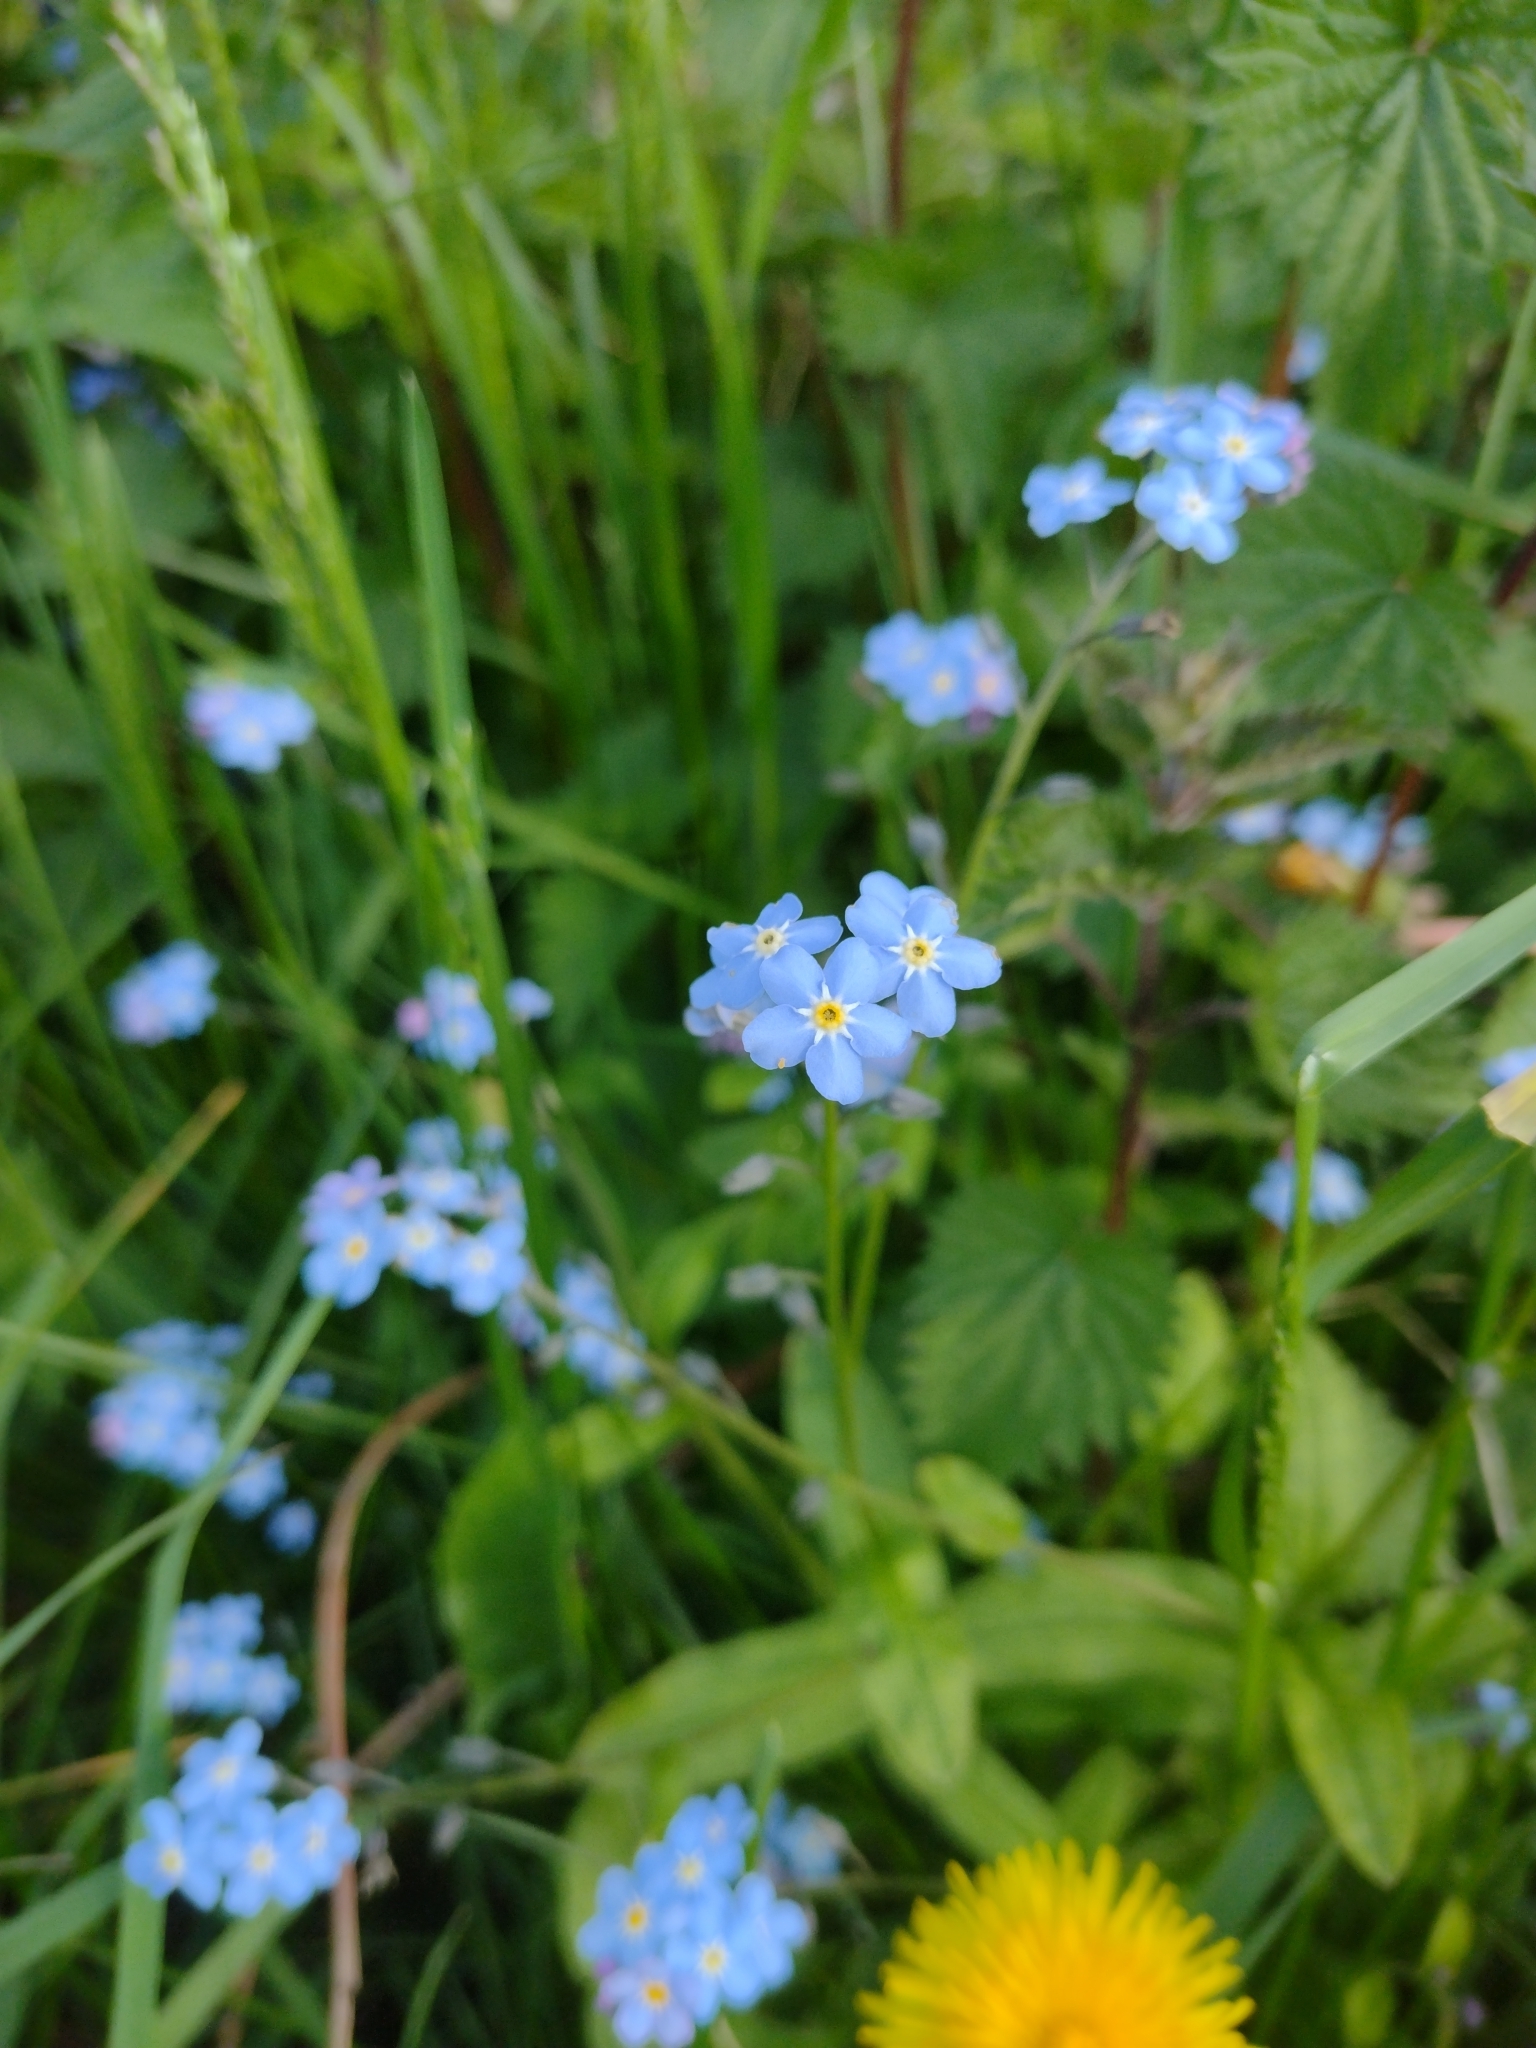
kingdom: Plantae
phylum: Tracheophyta
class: Magnoliopsida
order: Boraginales
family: Boraginaceae
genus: Myosotis
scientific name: Myosotis sylvatica
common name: Wood forget-me-not
